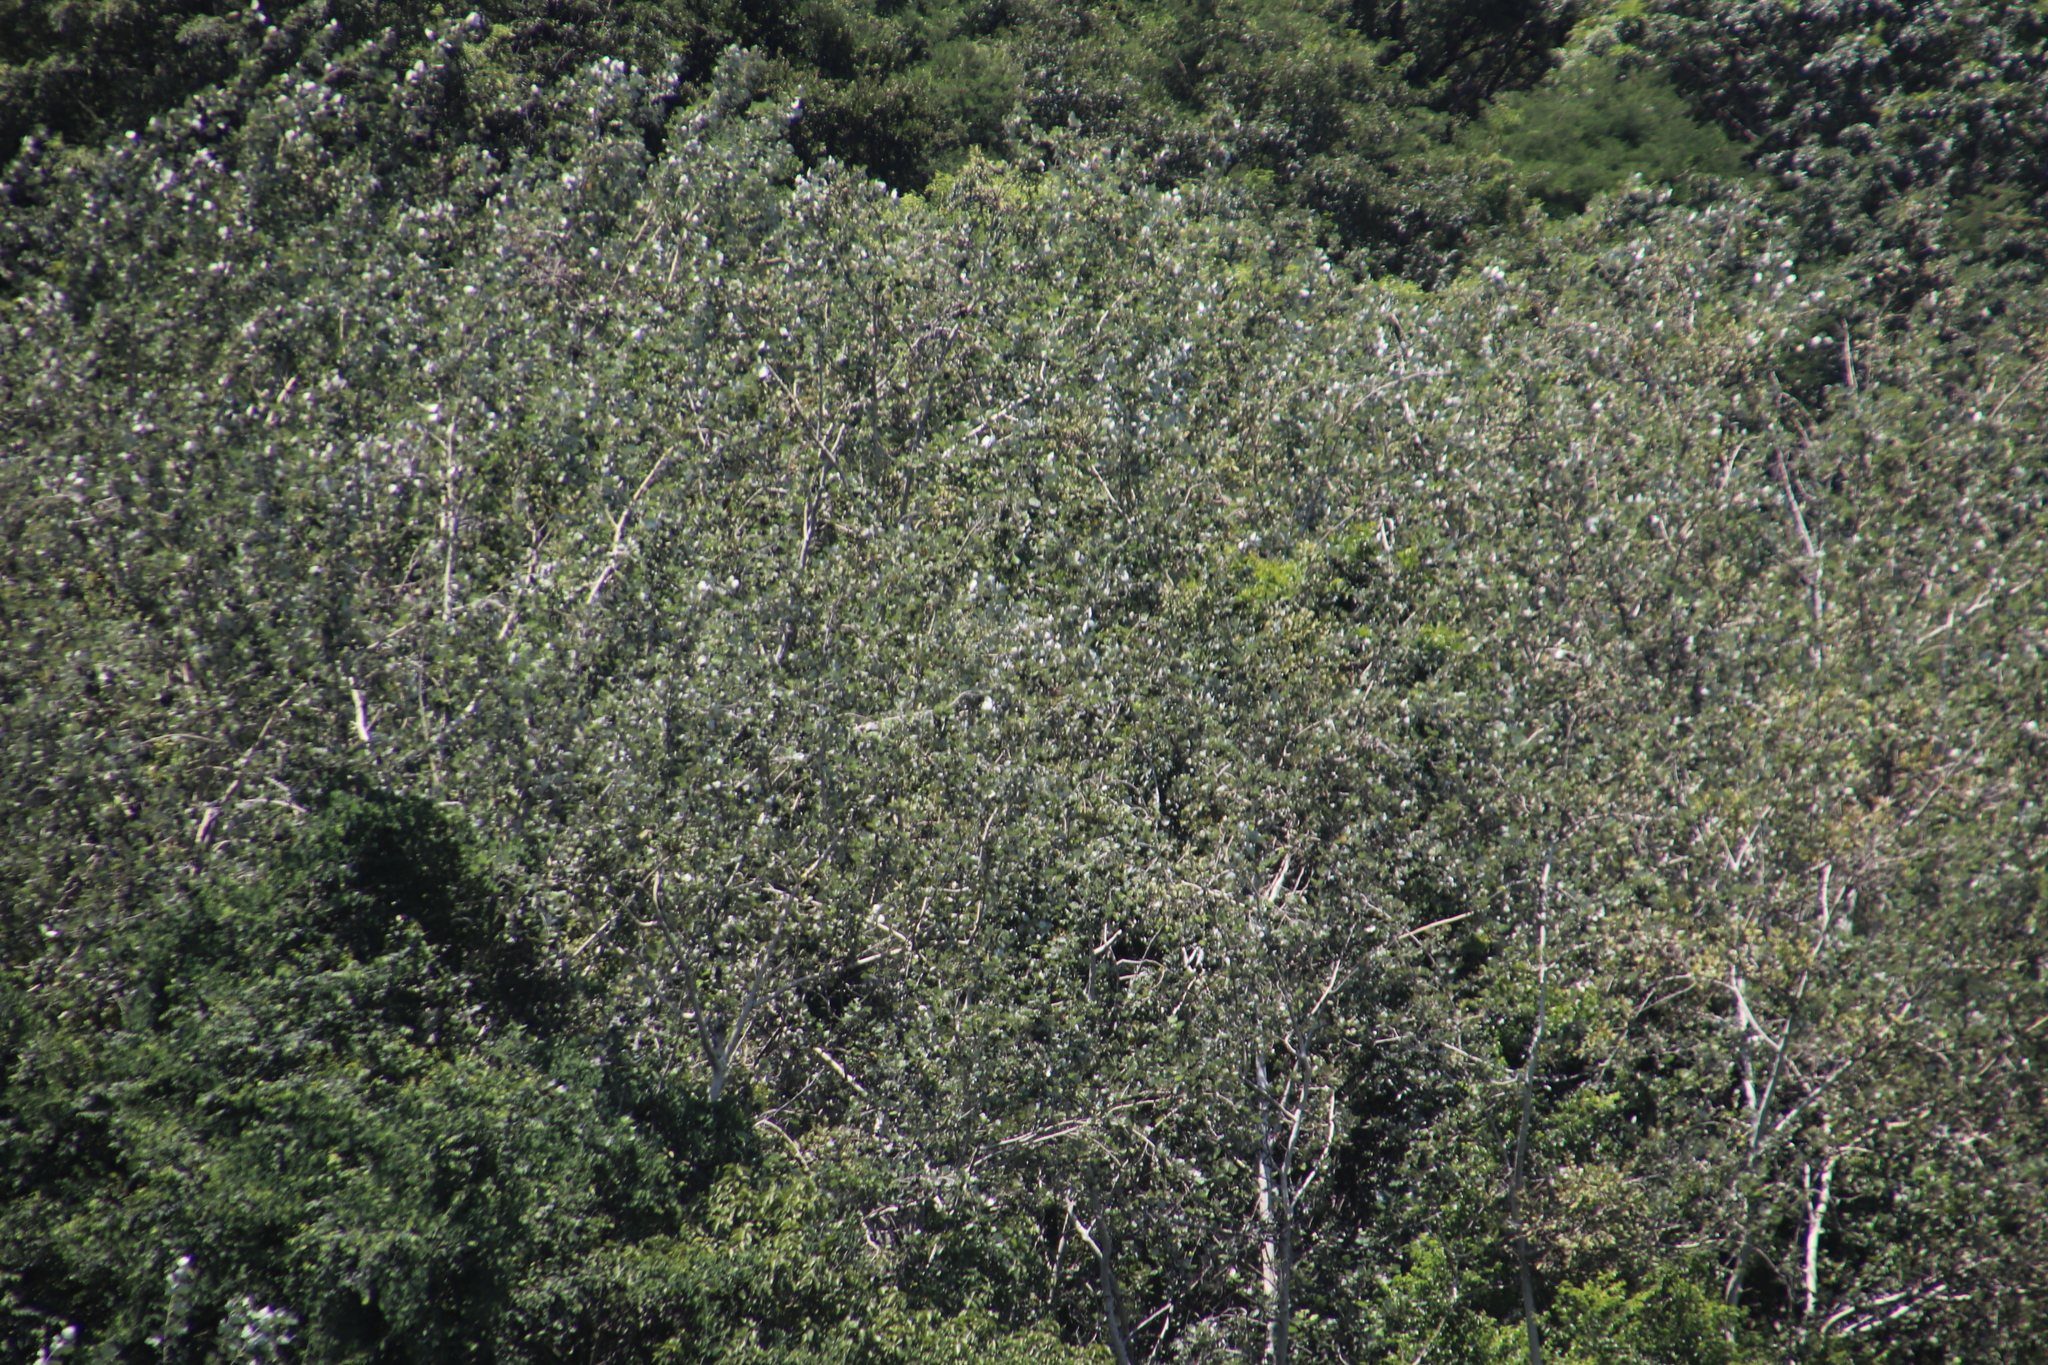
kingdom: Plantae
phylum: Tracheophyta
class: Magnoliopsida
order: Malpighiales
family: Salicaceae
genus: Populus
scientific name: Populus canescens
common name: Gray poplar
